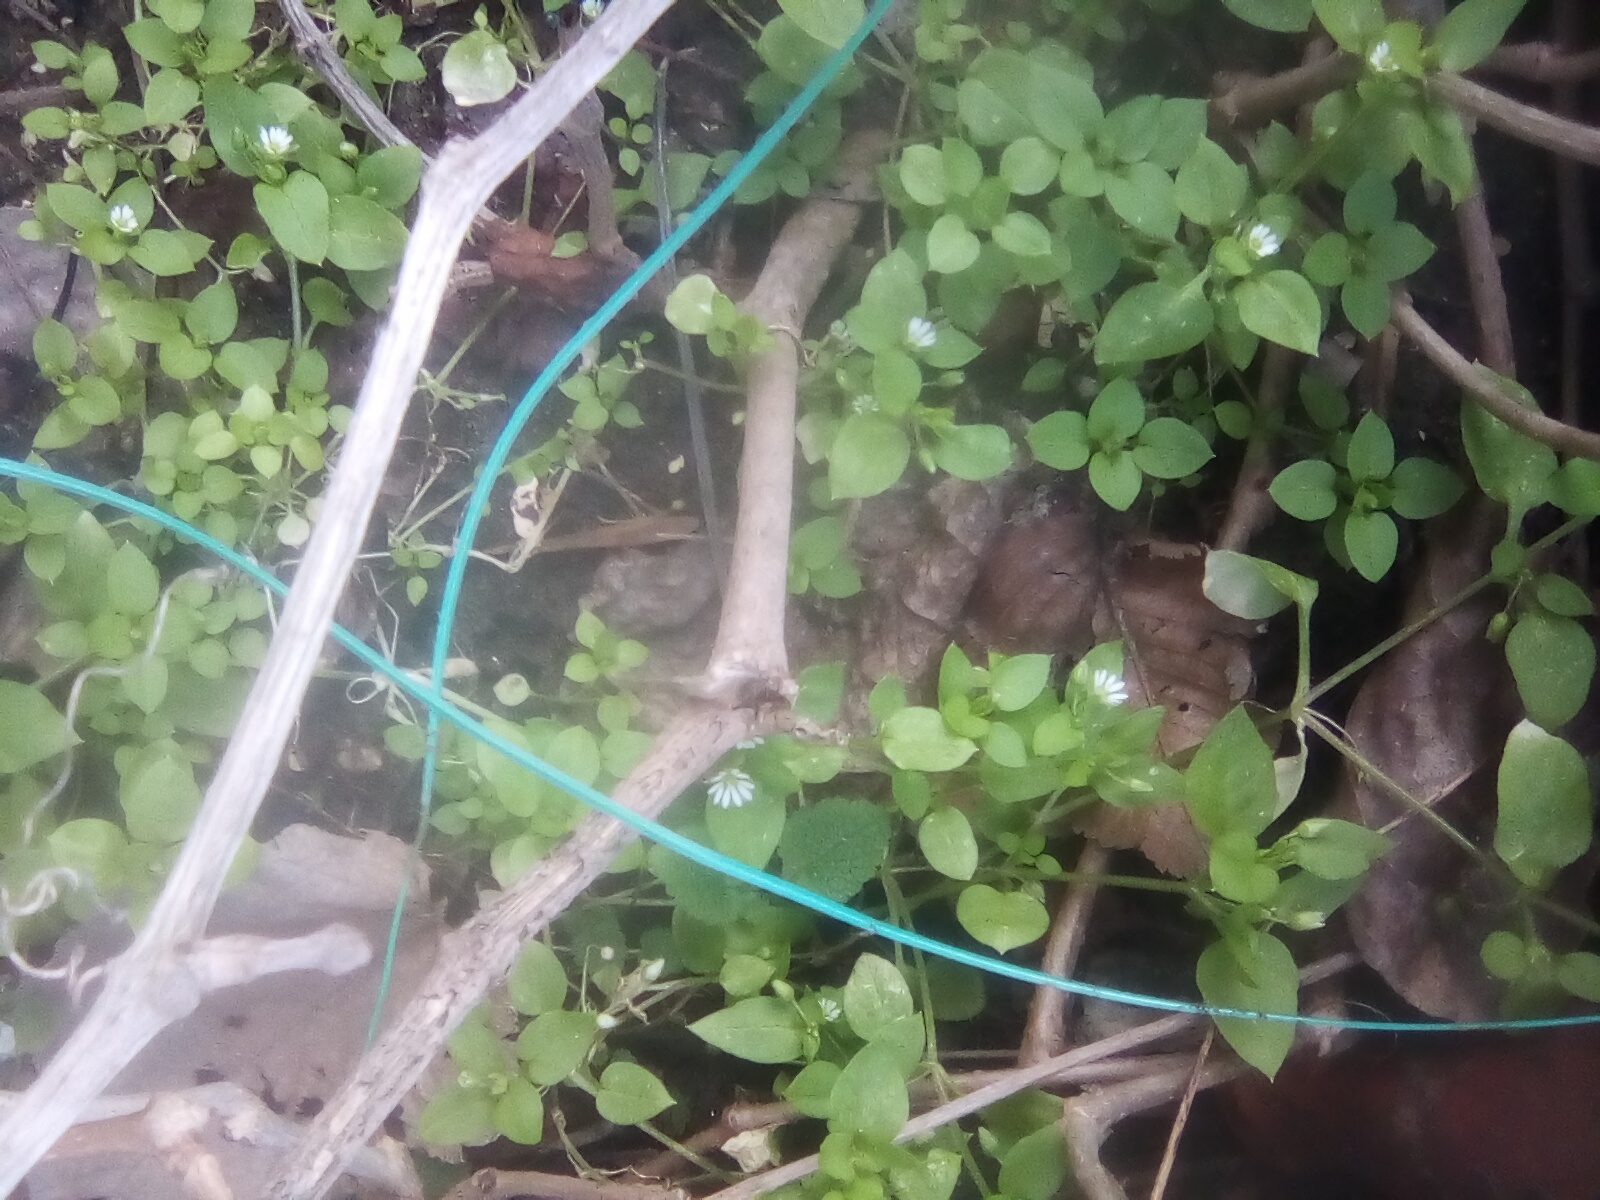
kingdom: Plantae
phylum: Tracheophyta
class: Magnoliopsida
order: Caryophyllales
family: Caryophyllaceae
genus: Stellaria
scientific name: Stellaria media
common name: Common chickweed
